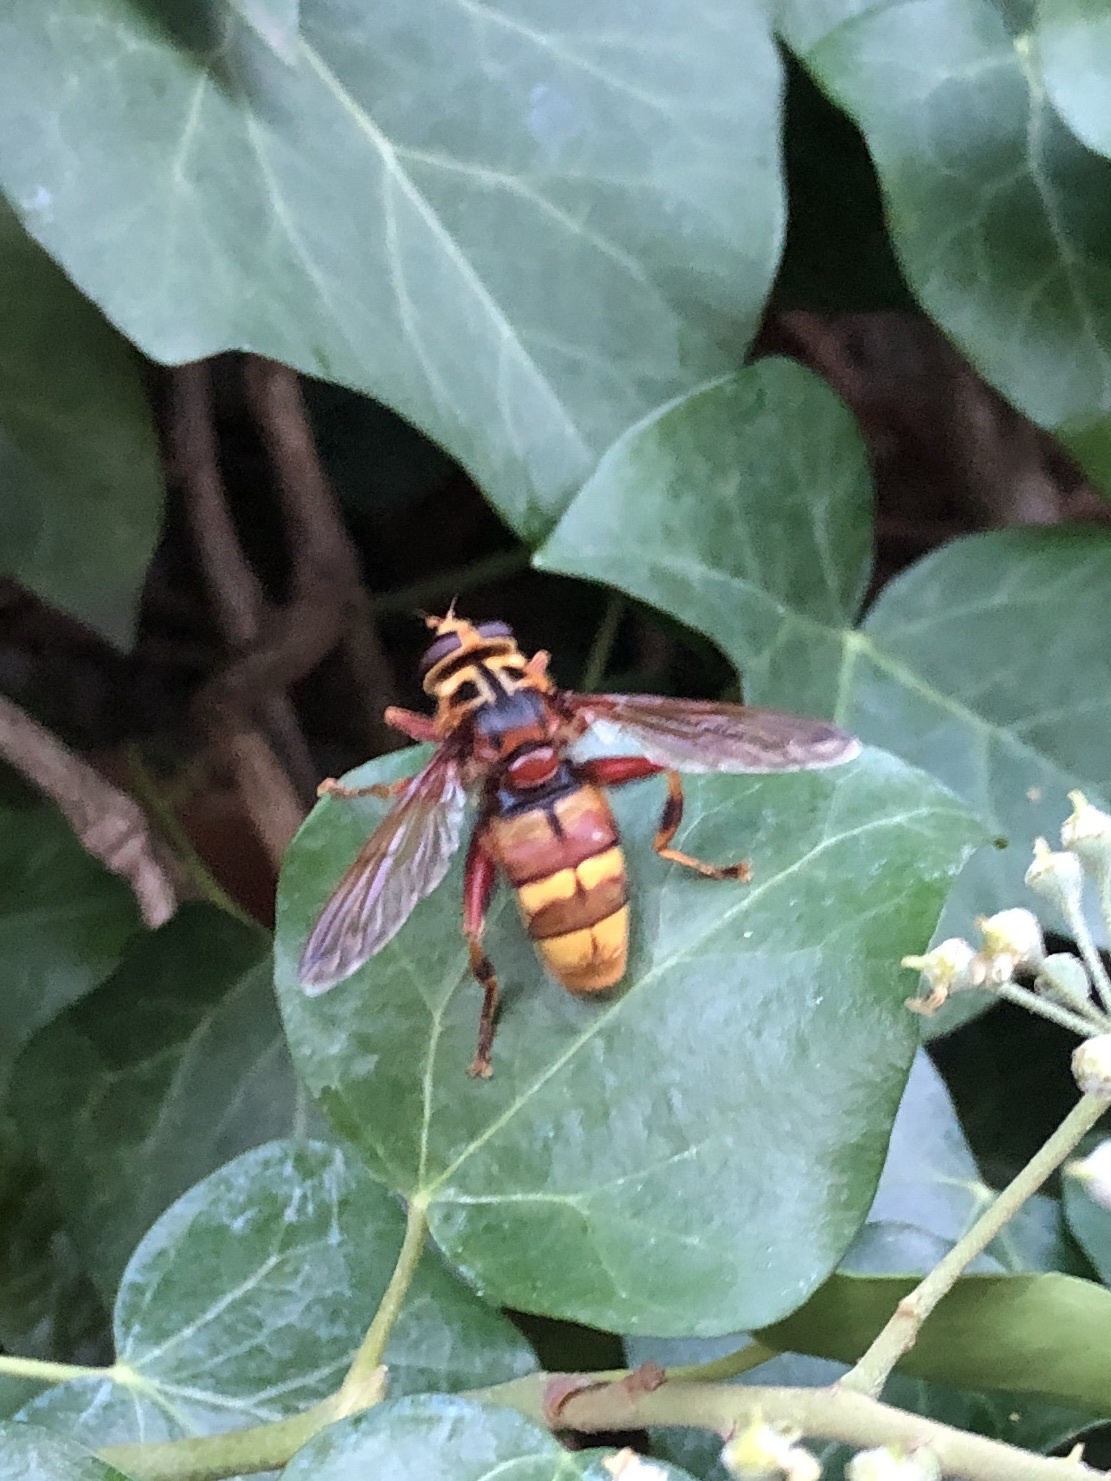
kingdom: Animalia
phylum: Arthropoda
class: Insecta
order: Diptera
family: Syrphidae
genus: Milesia
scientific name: Milesia crabroniformis
